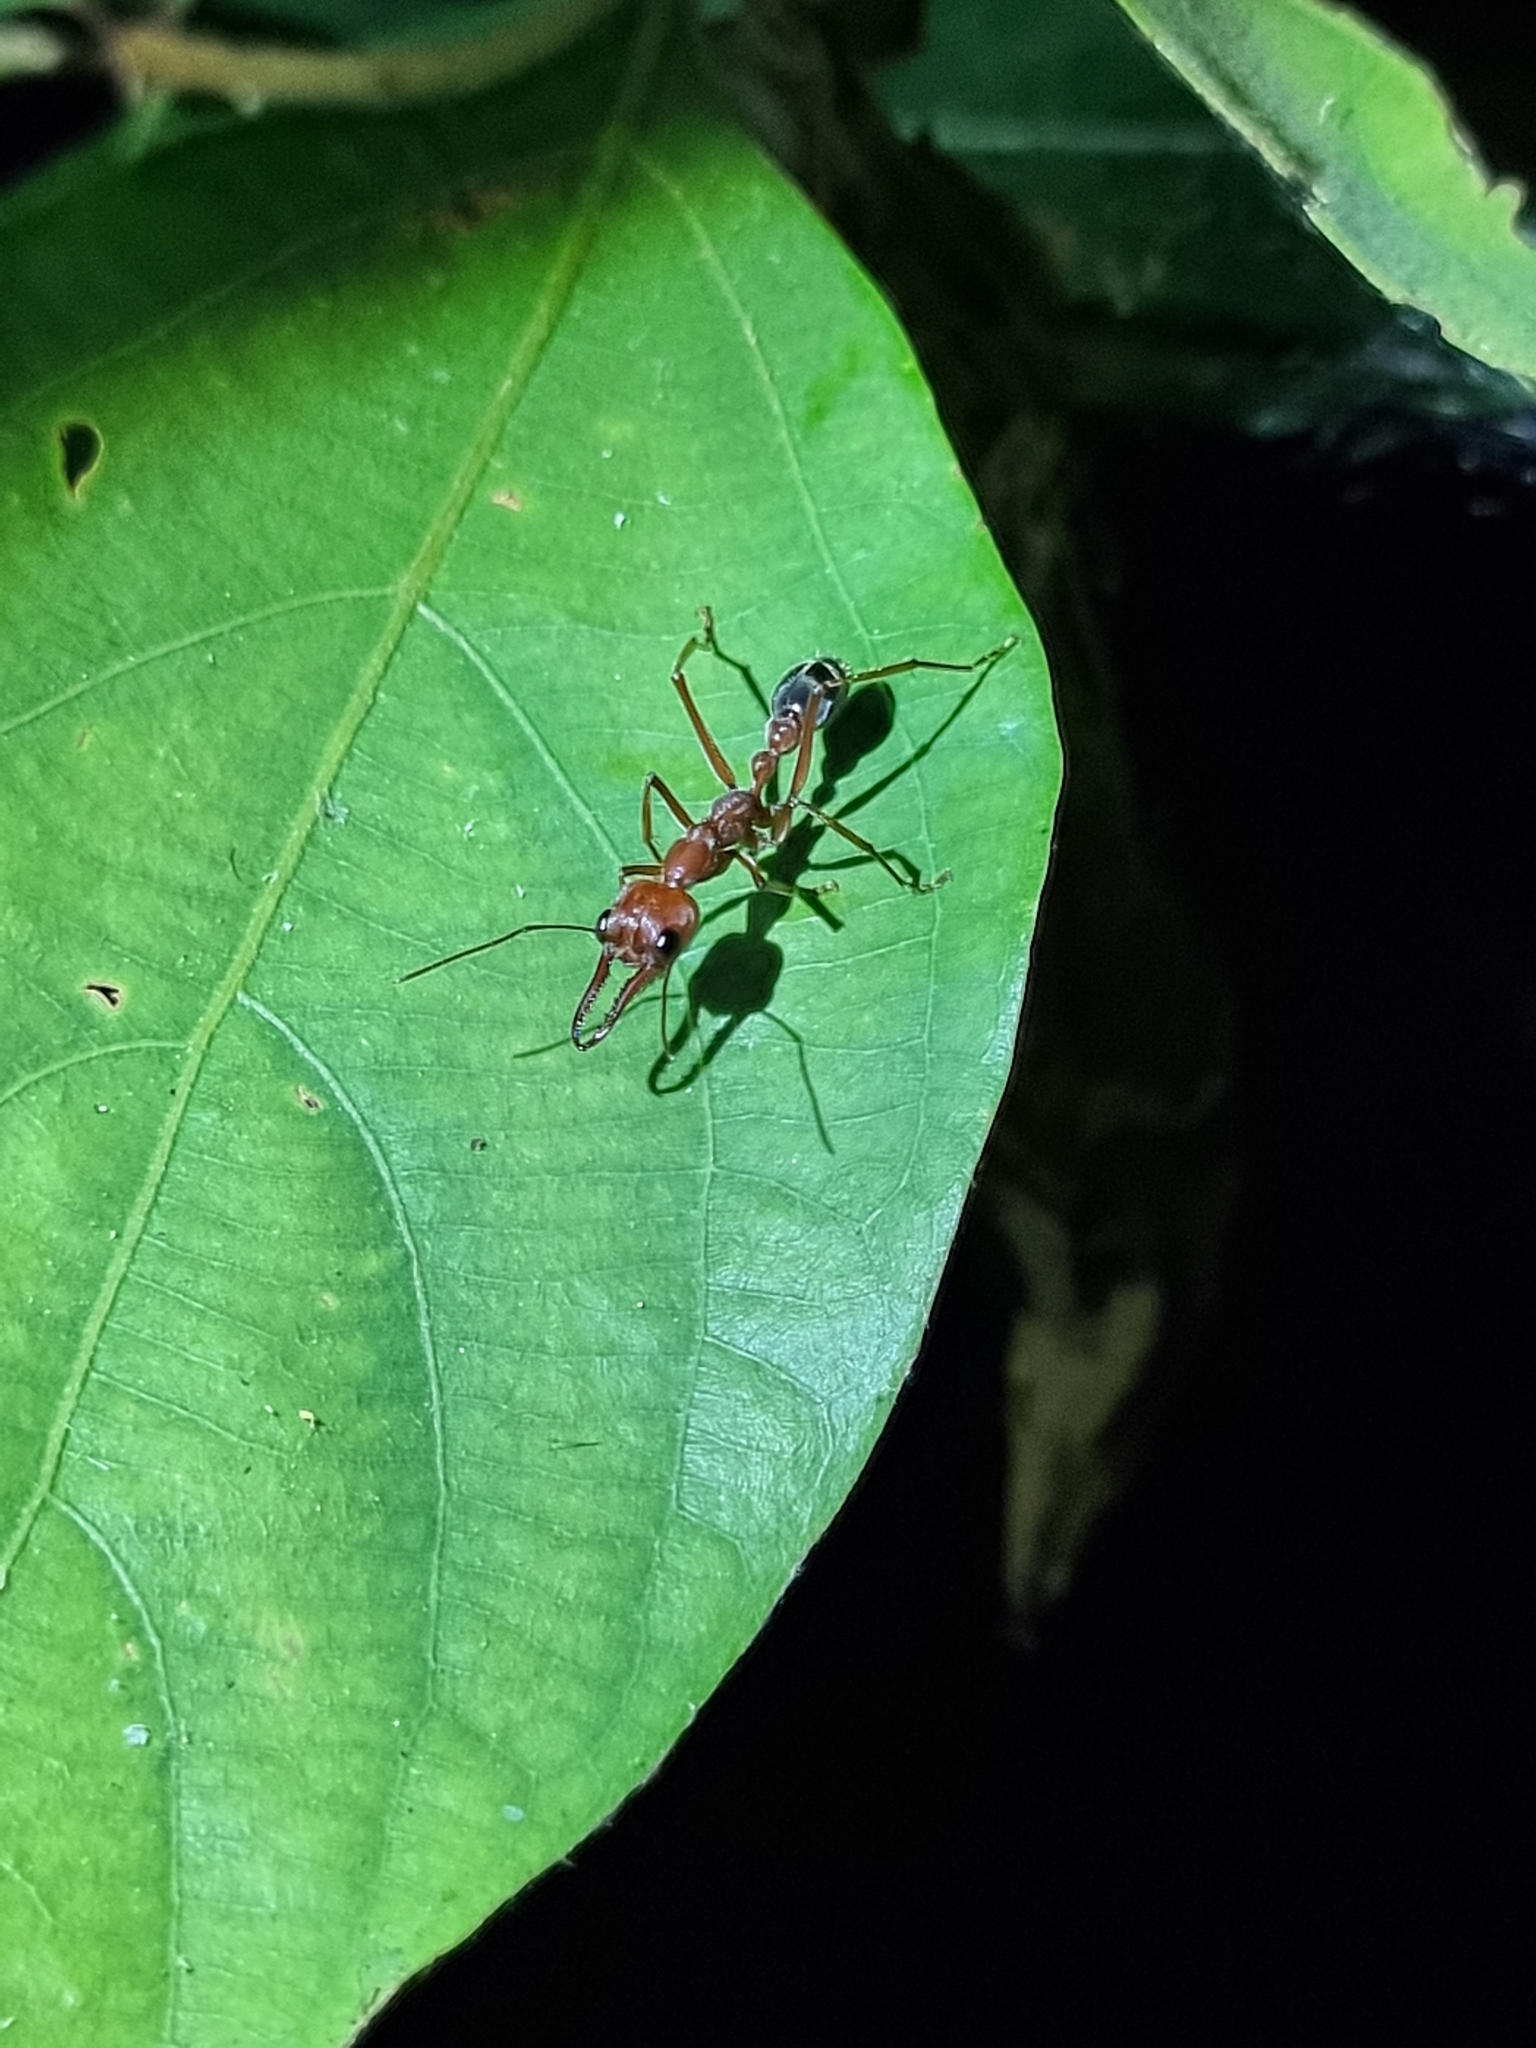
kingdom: Animalia
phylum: Arthropoda
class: Insecta
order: Hymenoptera
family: Formicidae
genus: Myrmecia
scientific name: Myrmecia brevinoda
